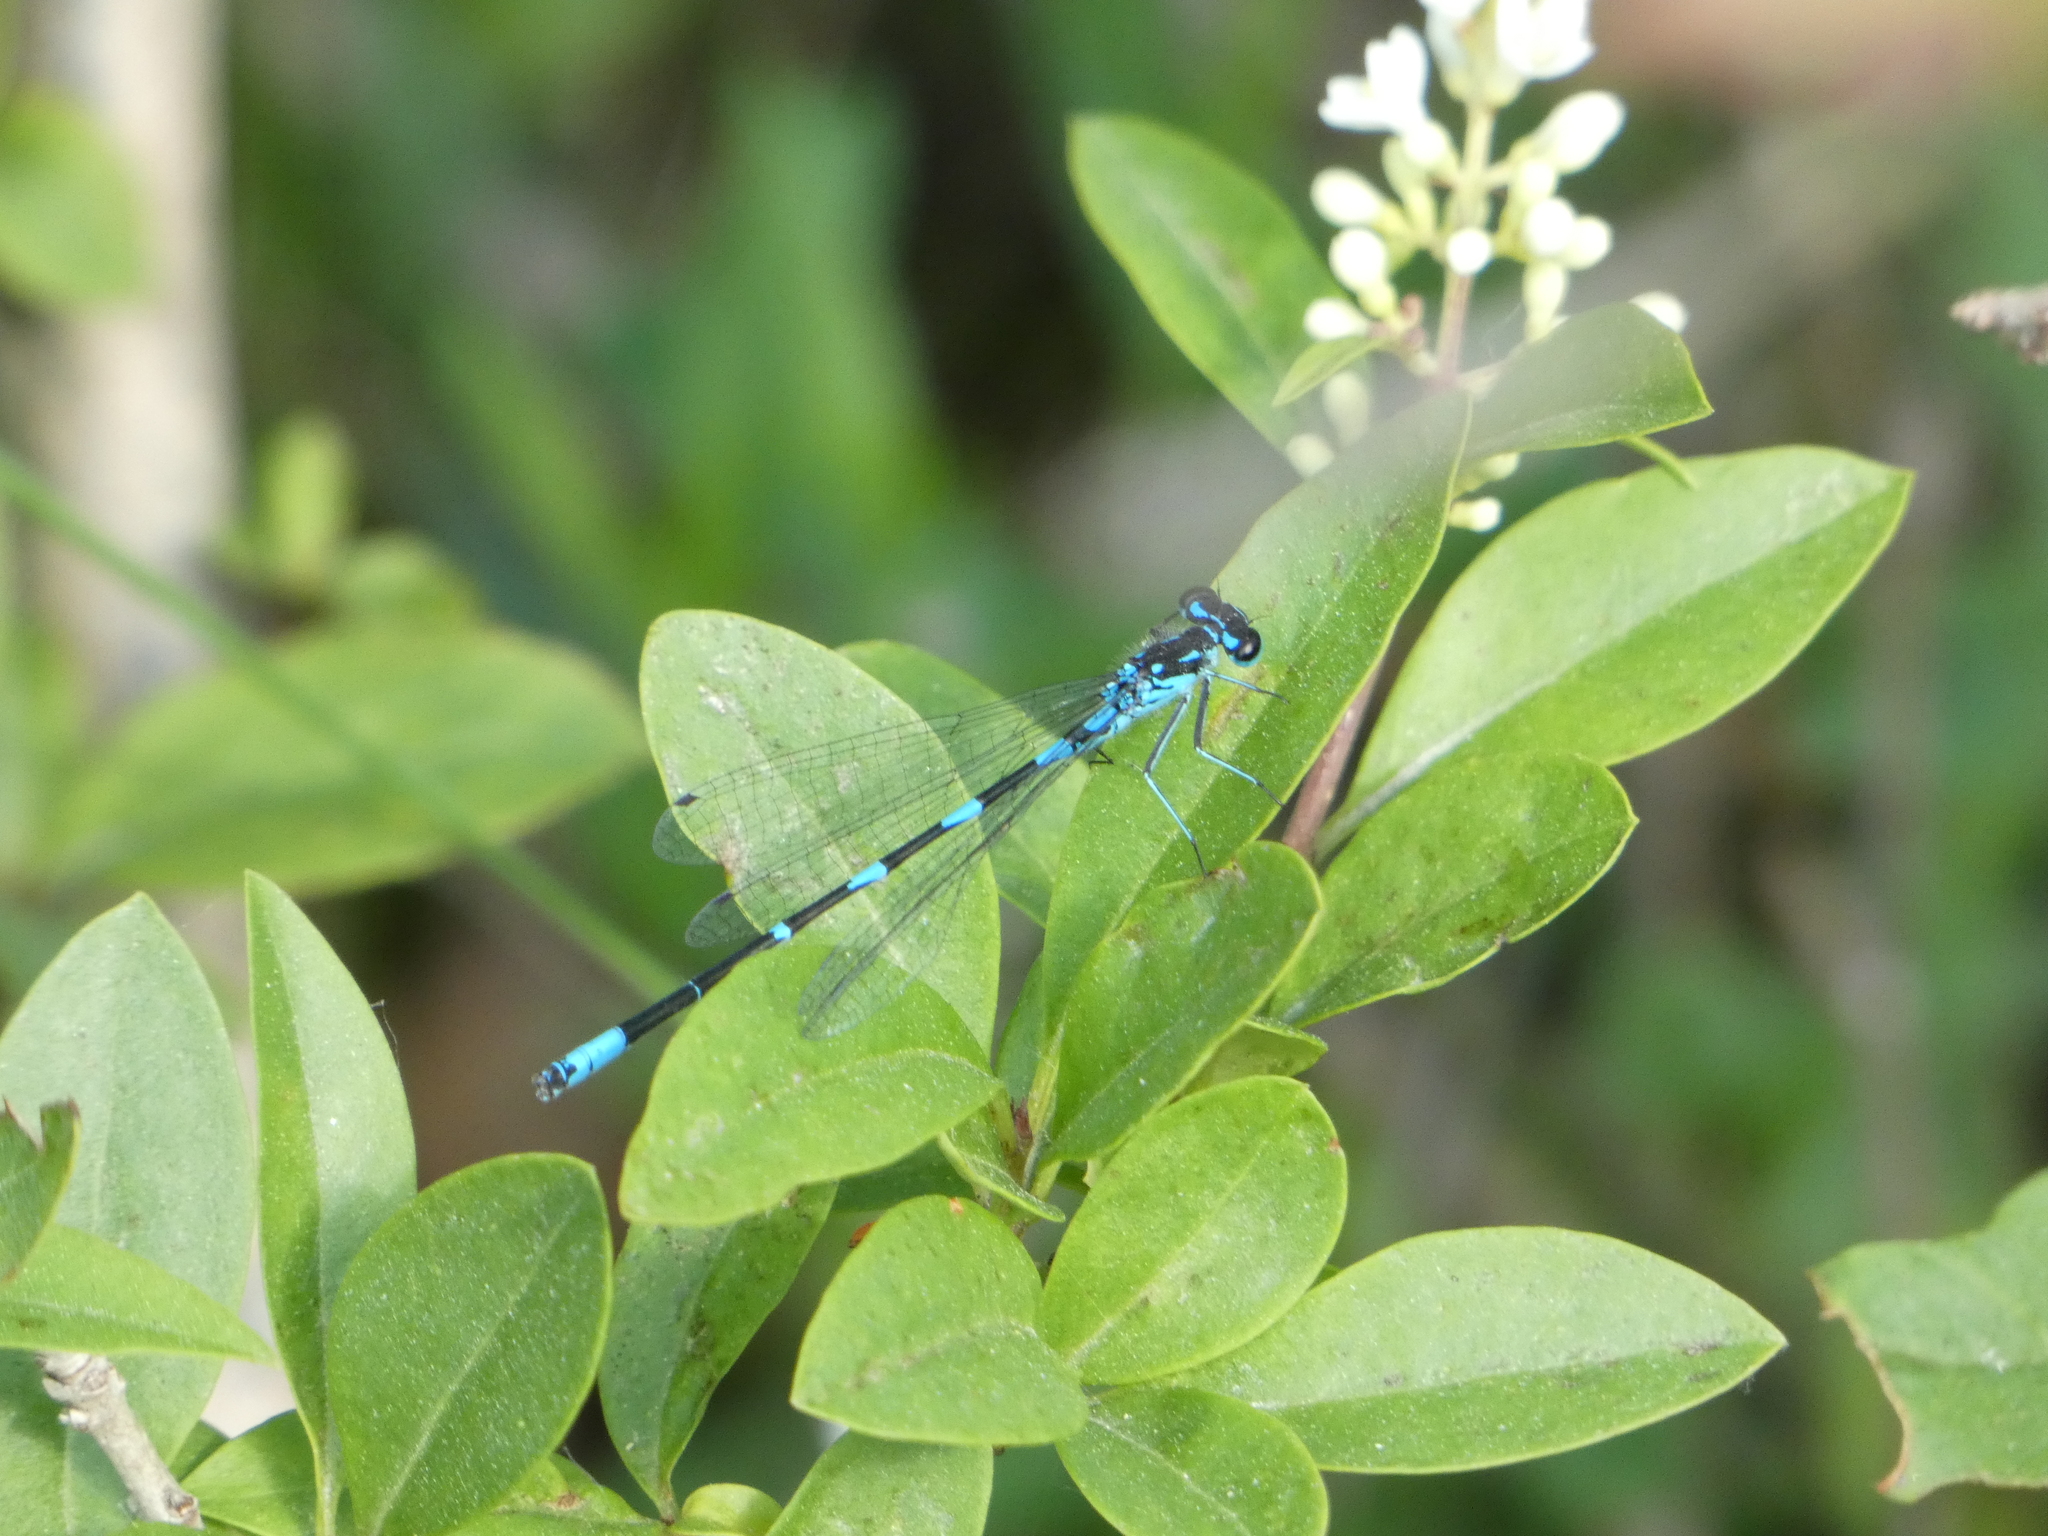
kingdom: Animalia
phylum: Arthropoda
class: Insecta
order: Odonata
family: Coenagrionidae
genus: Coenagrion
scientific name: Coenagrion pulchellum
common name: Variable bluet
